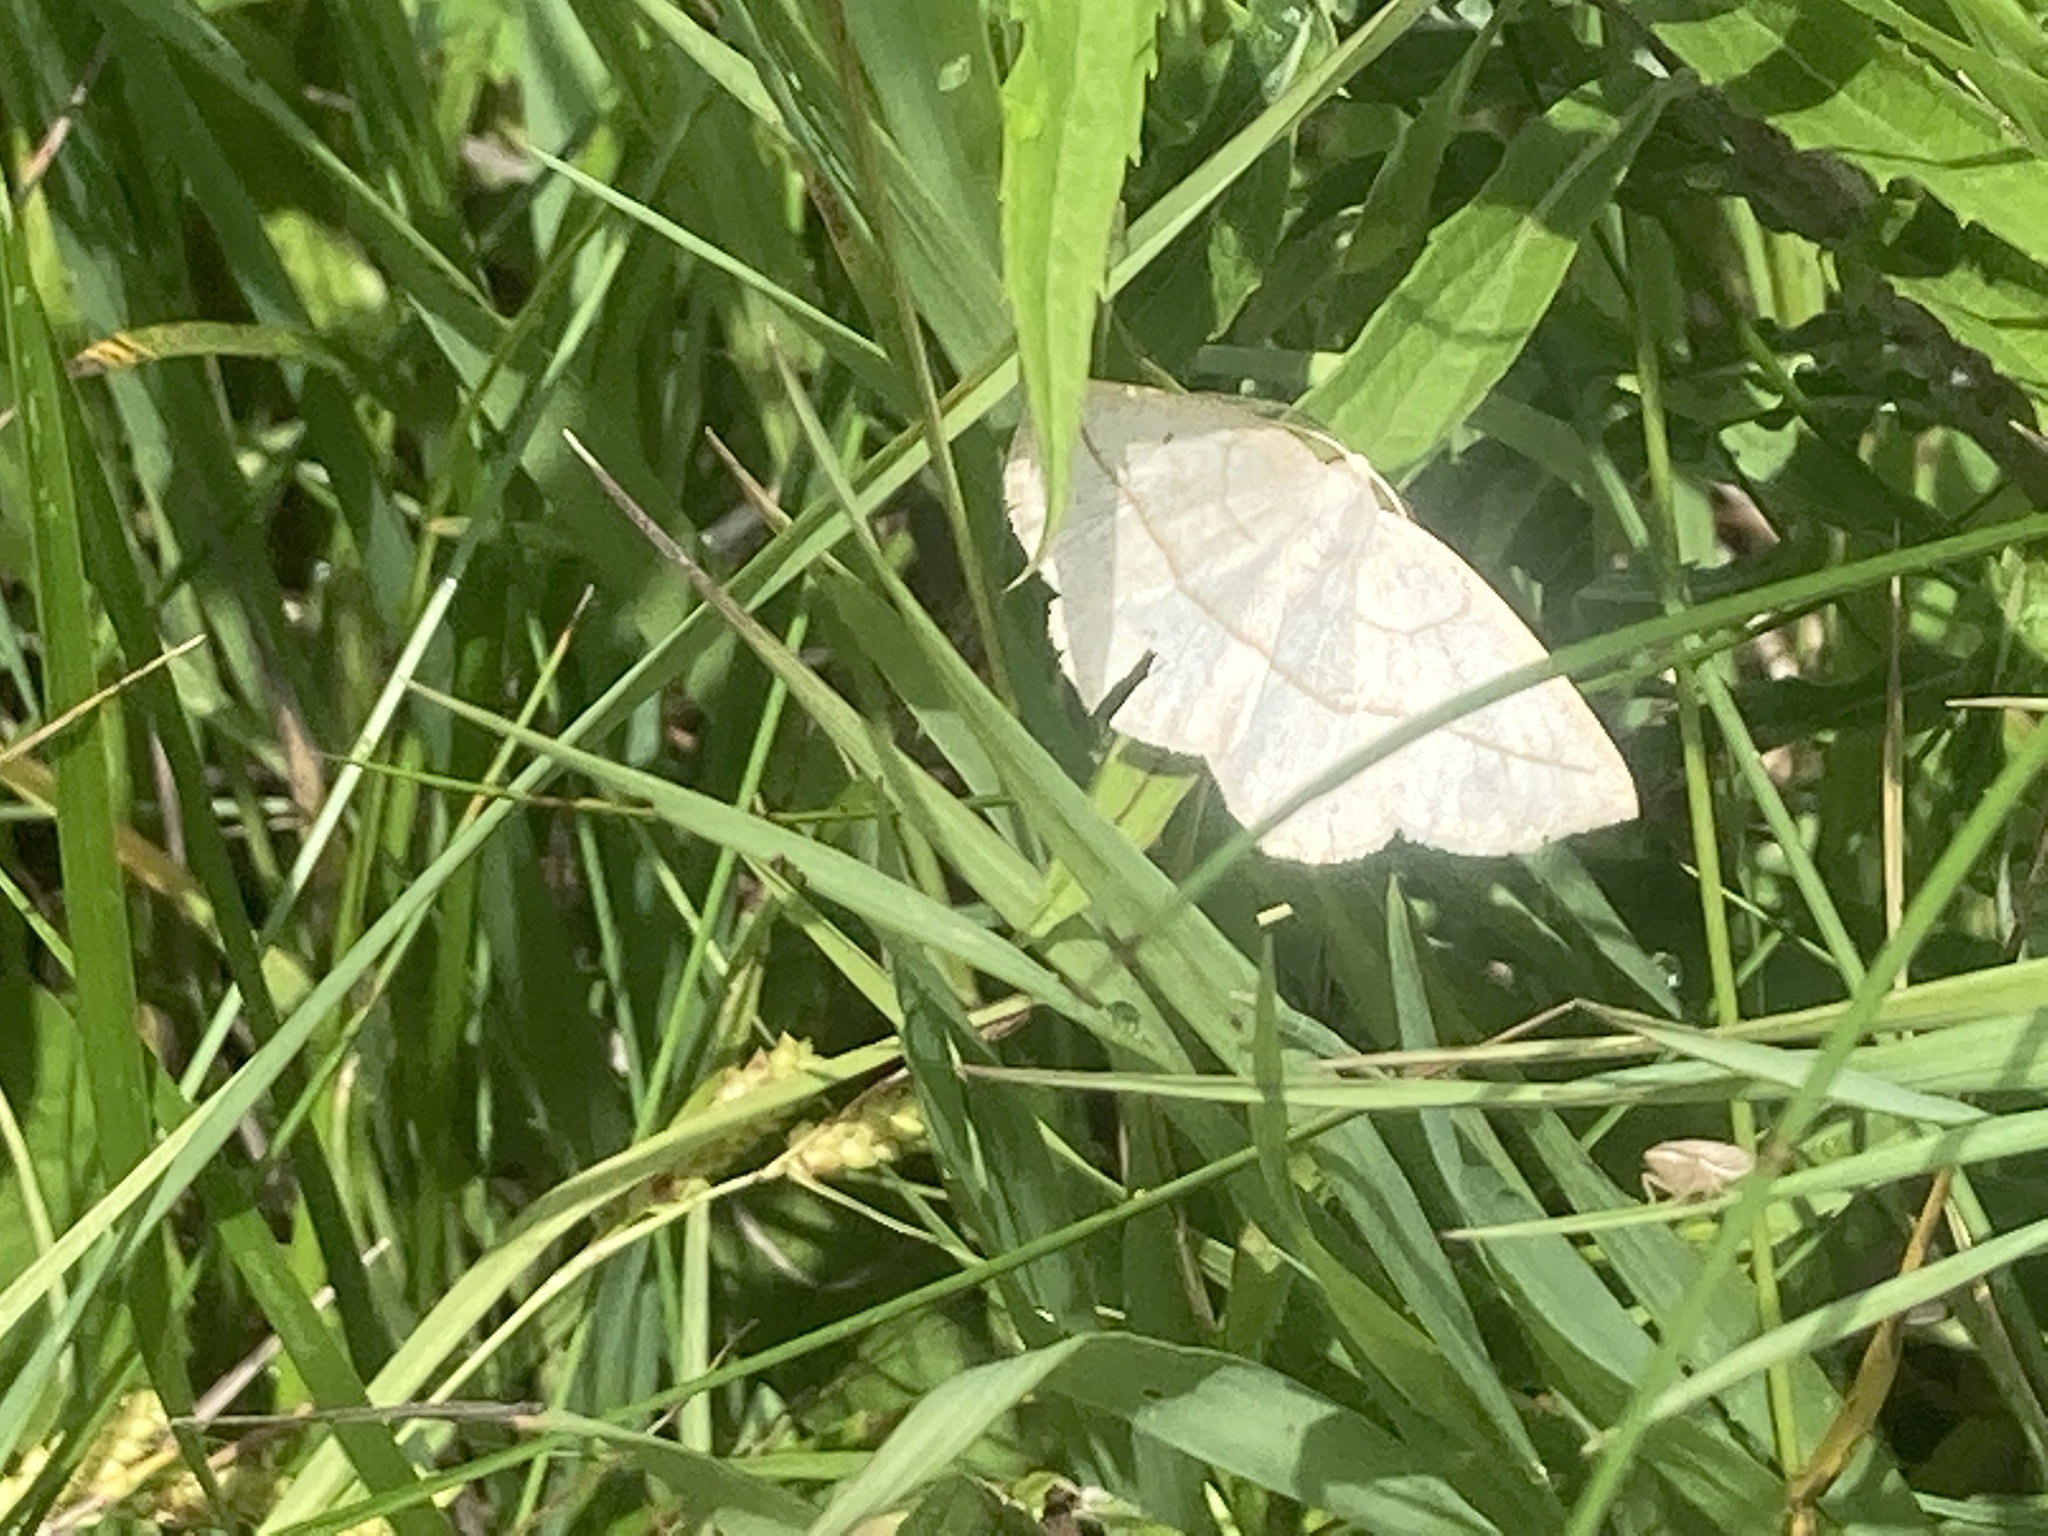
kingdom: Animalia
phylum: Arthropoda
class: Insecta
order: Lepidoptera
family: Geometridae
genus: Eusarca
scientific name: Eusarca confusaria
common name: Confused eusarca
